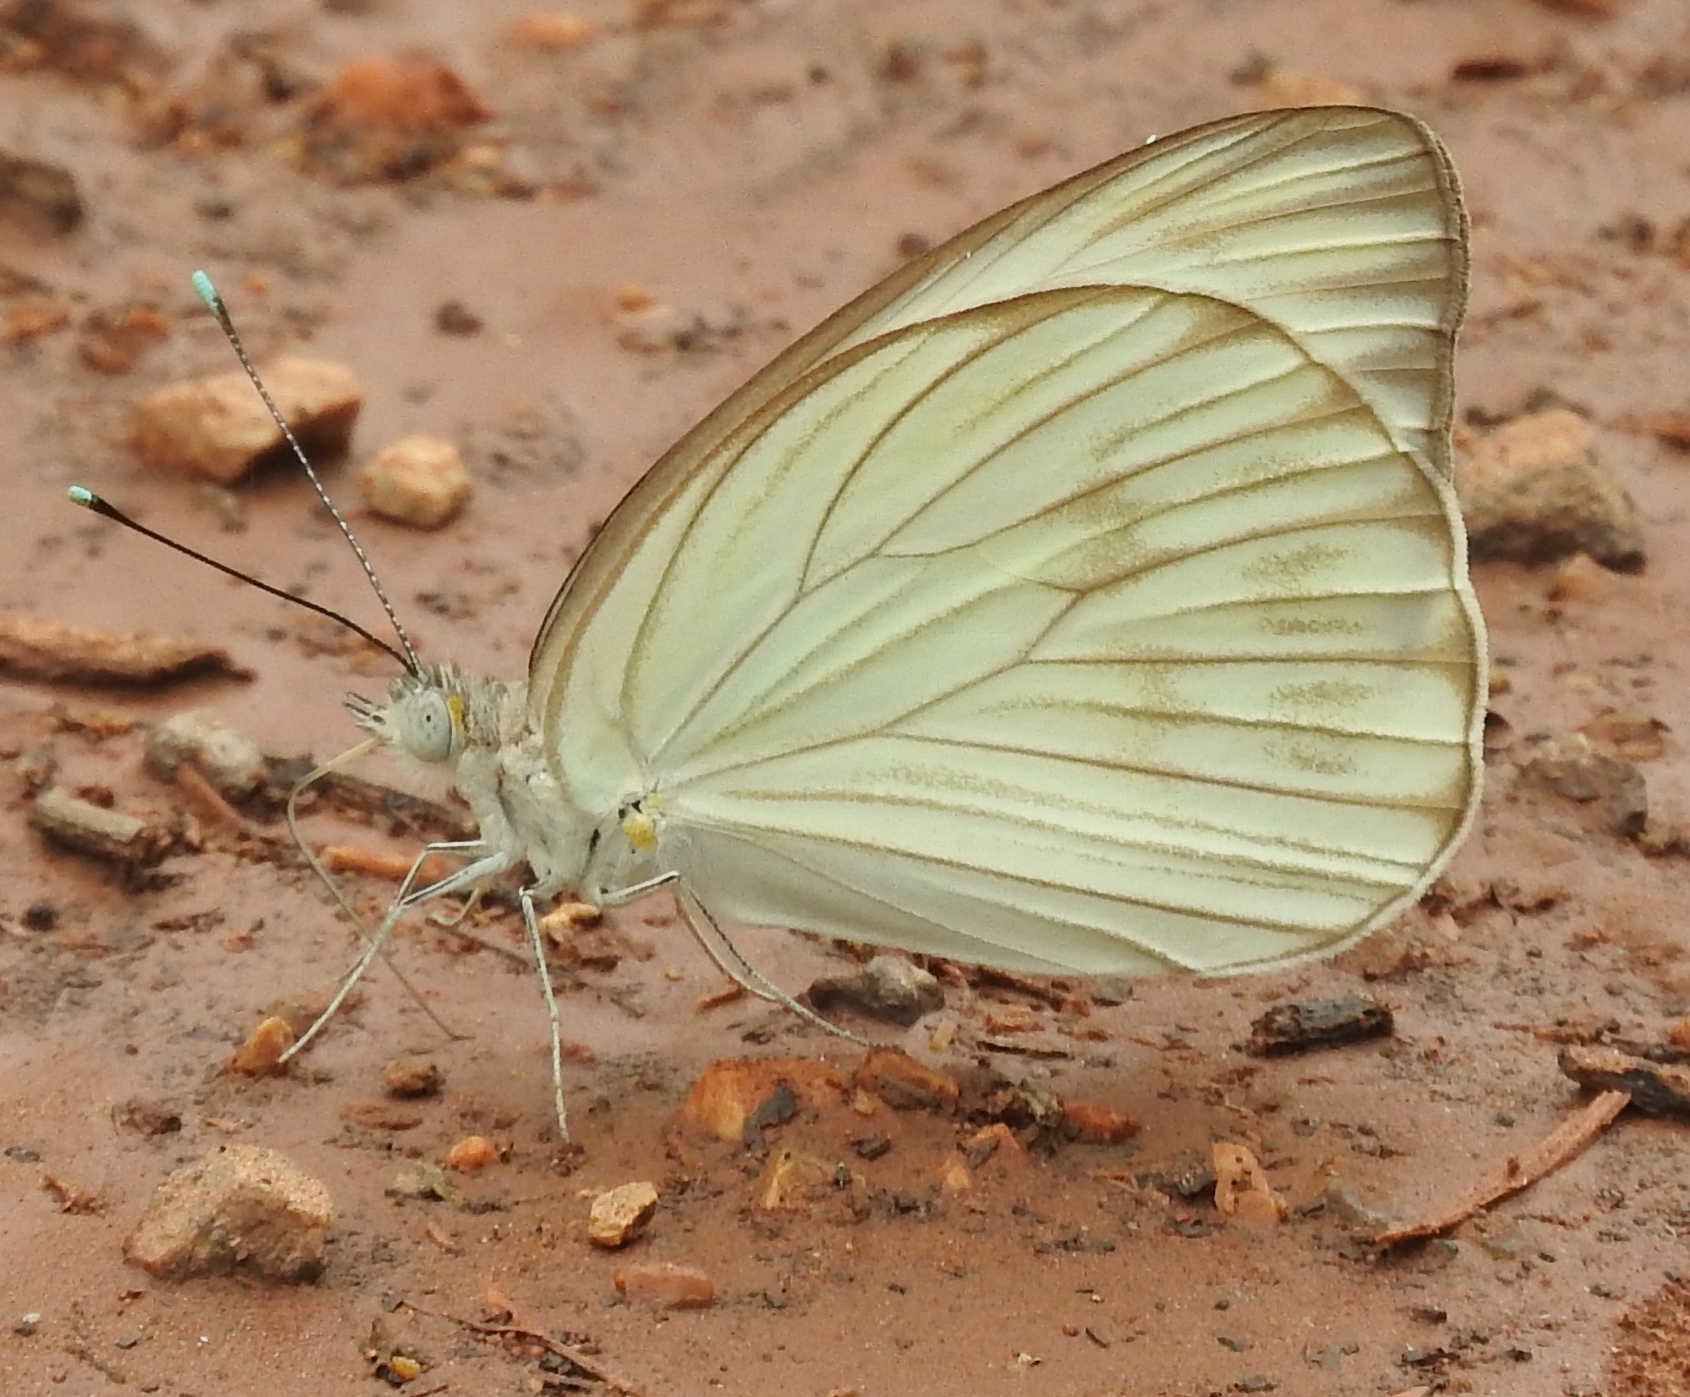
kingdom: Animalia
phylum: Arthropoda
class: Insecta
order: Lepidoptera
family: Pieridae
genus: Ascia
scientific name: Ascia monuste
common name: Great southern white
